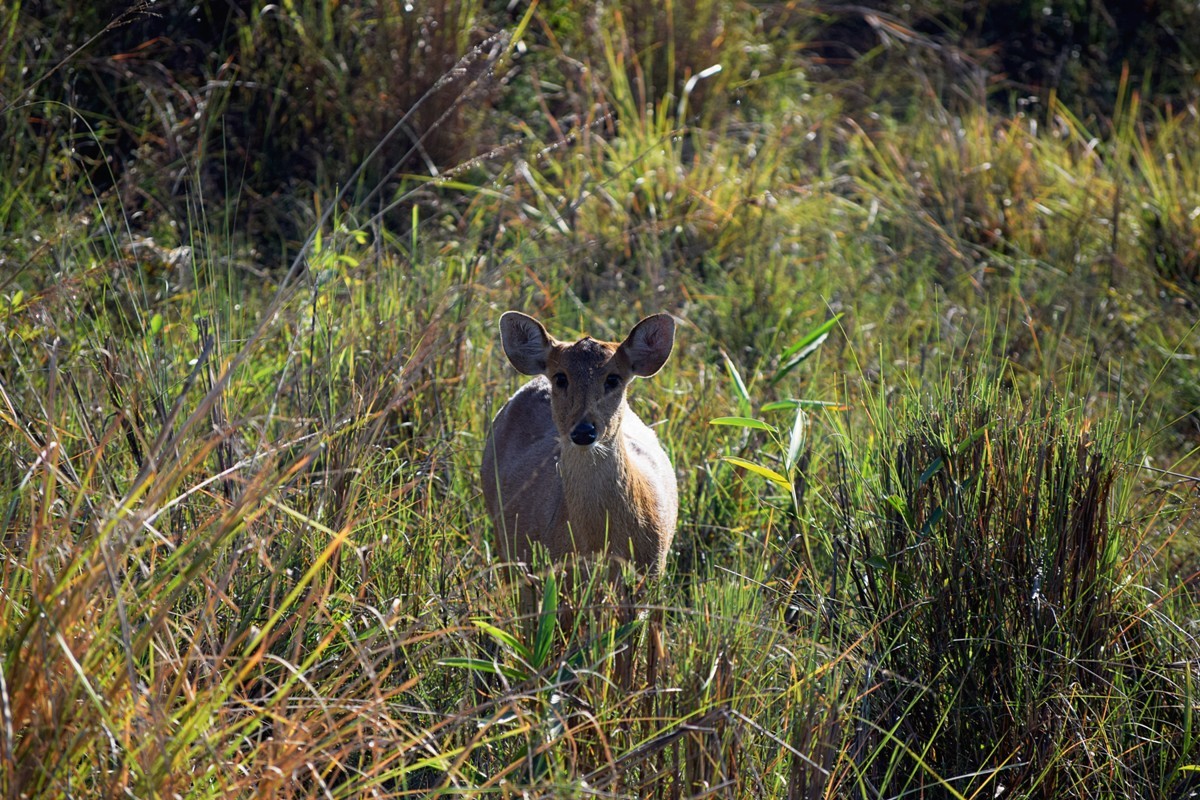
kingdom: Animalia
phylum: Chordata
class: Mammalia
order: Artiodactyla
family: Cervidae
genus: Axis
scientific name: Axis porcinus
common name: Hog deer
